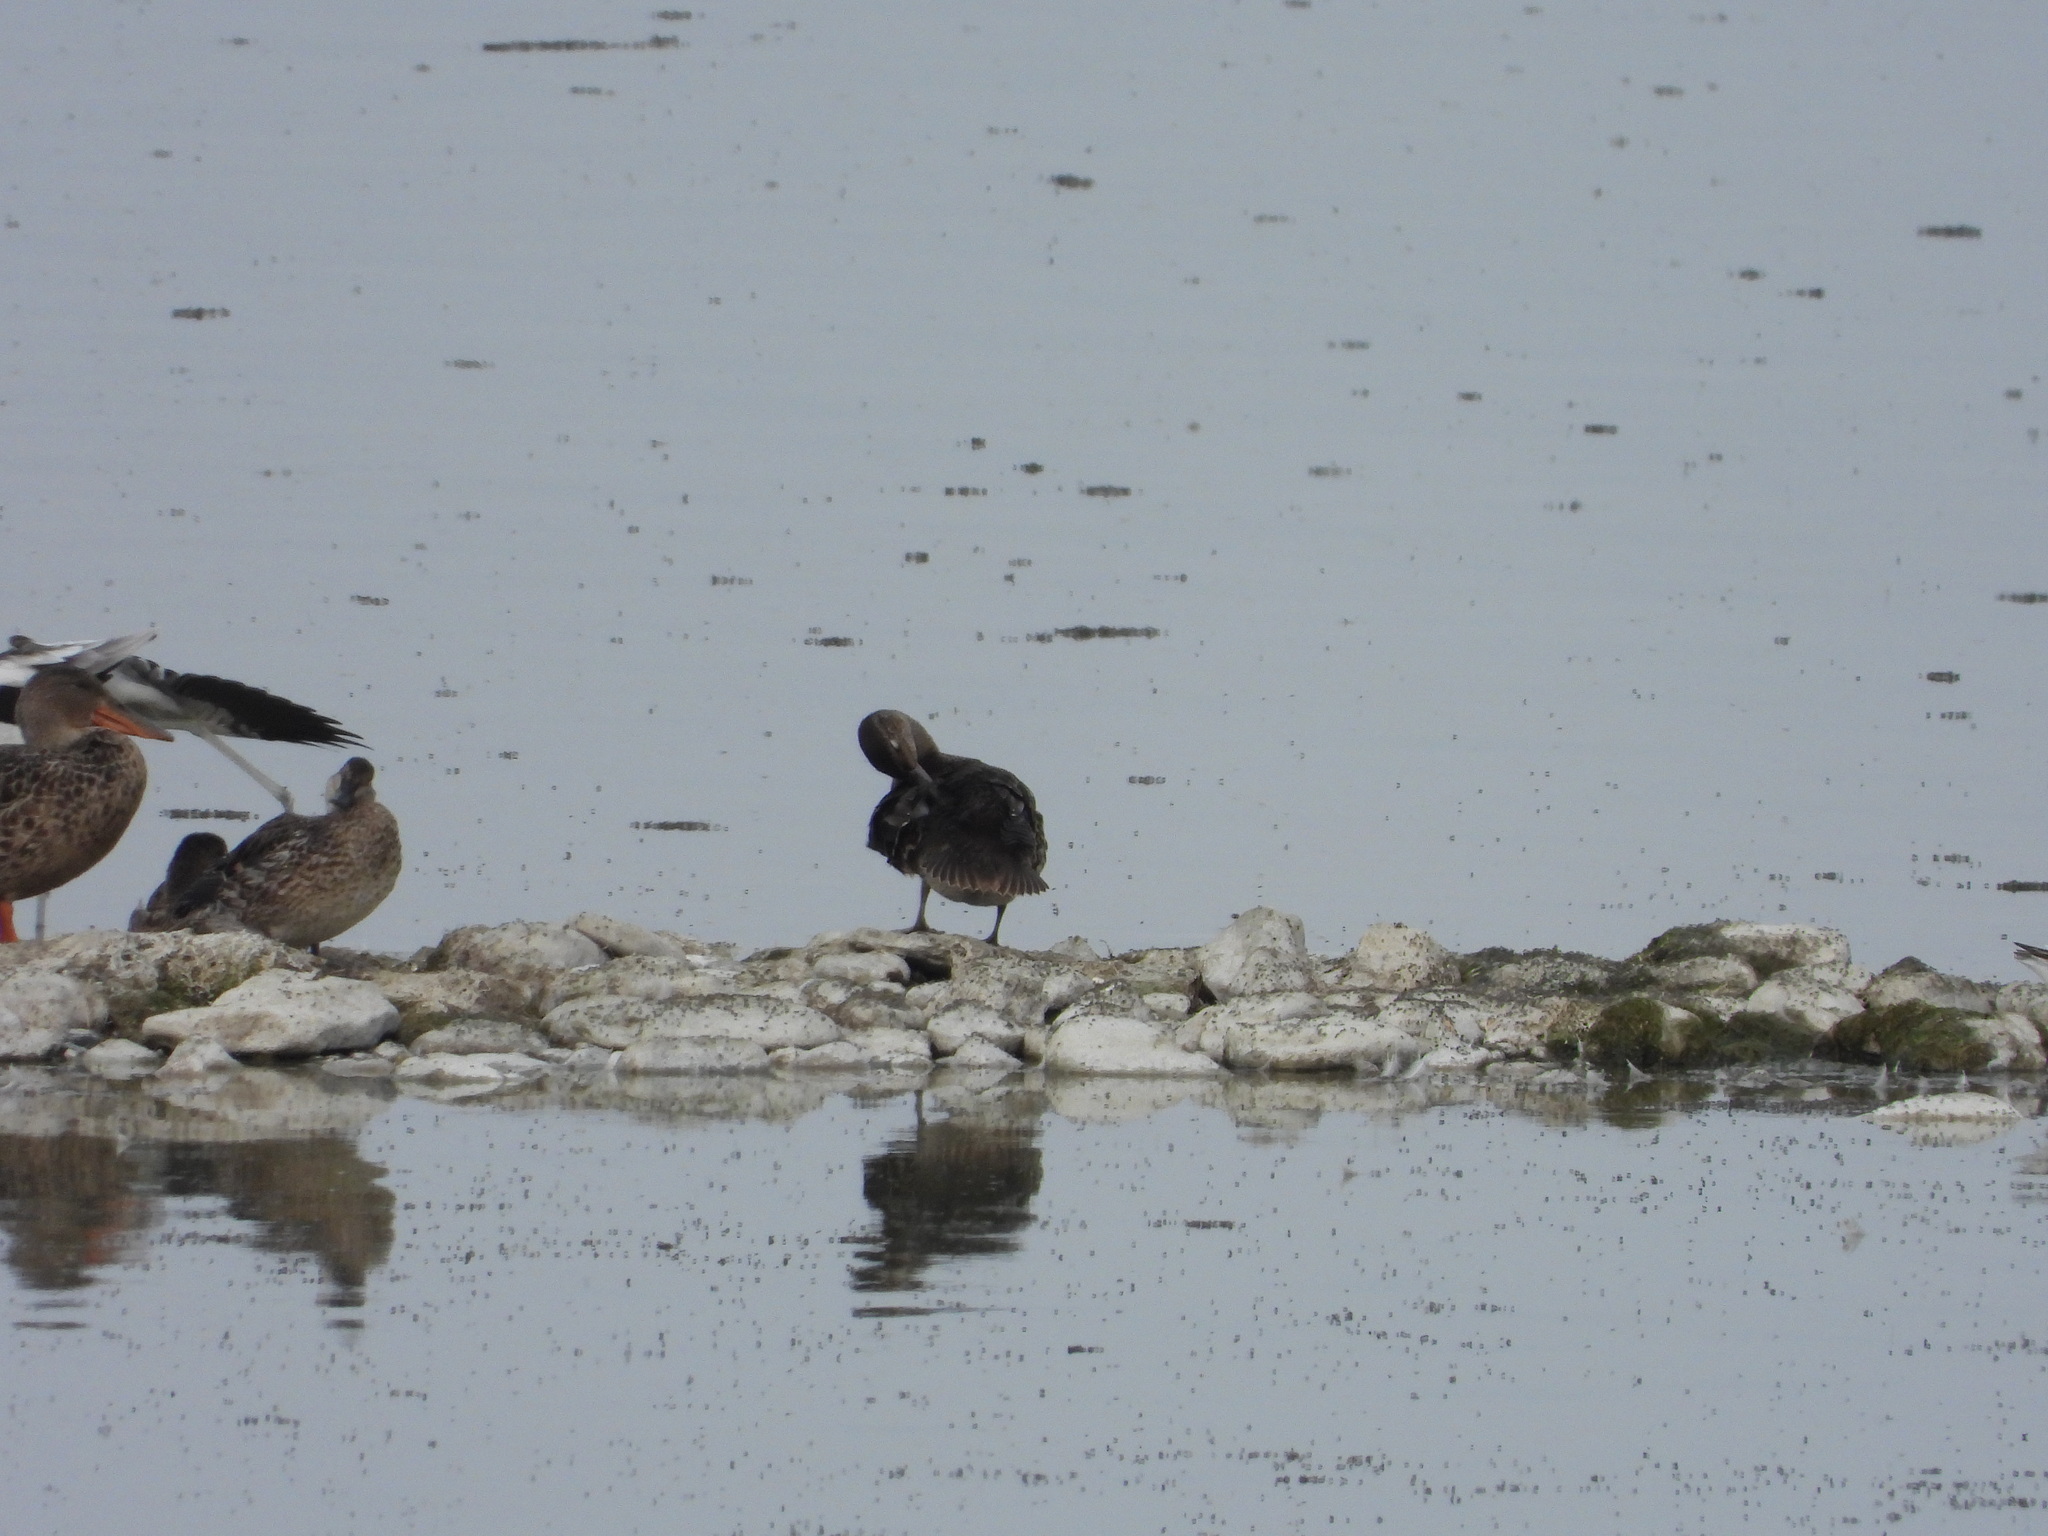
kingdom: Animalia
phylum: Chordata
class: Aves
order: Anseriformes
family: Anatidae
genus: Anas
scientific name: Anas crecca
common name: Eurasian teal
